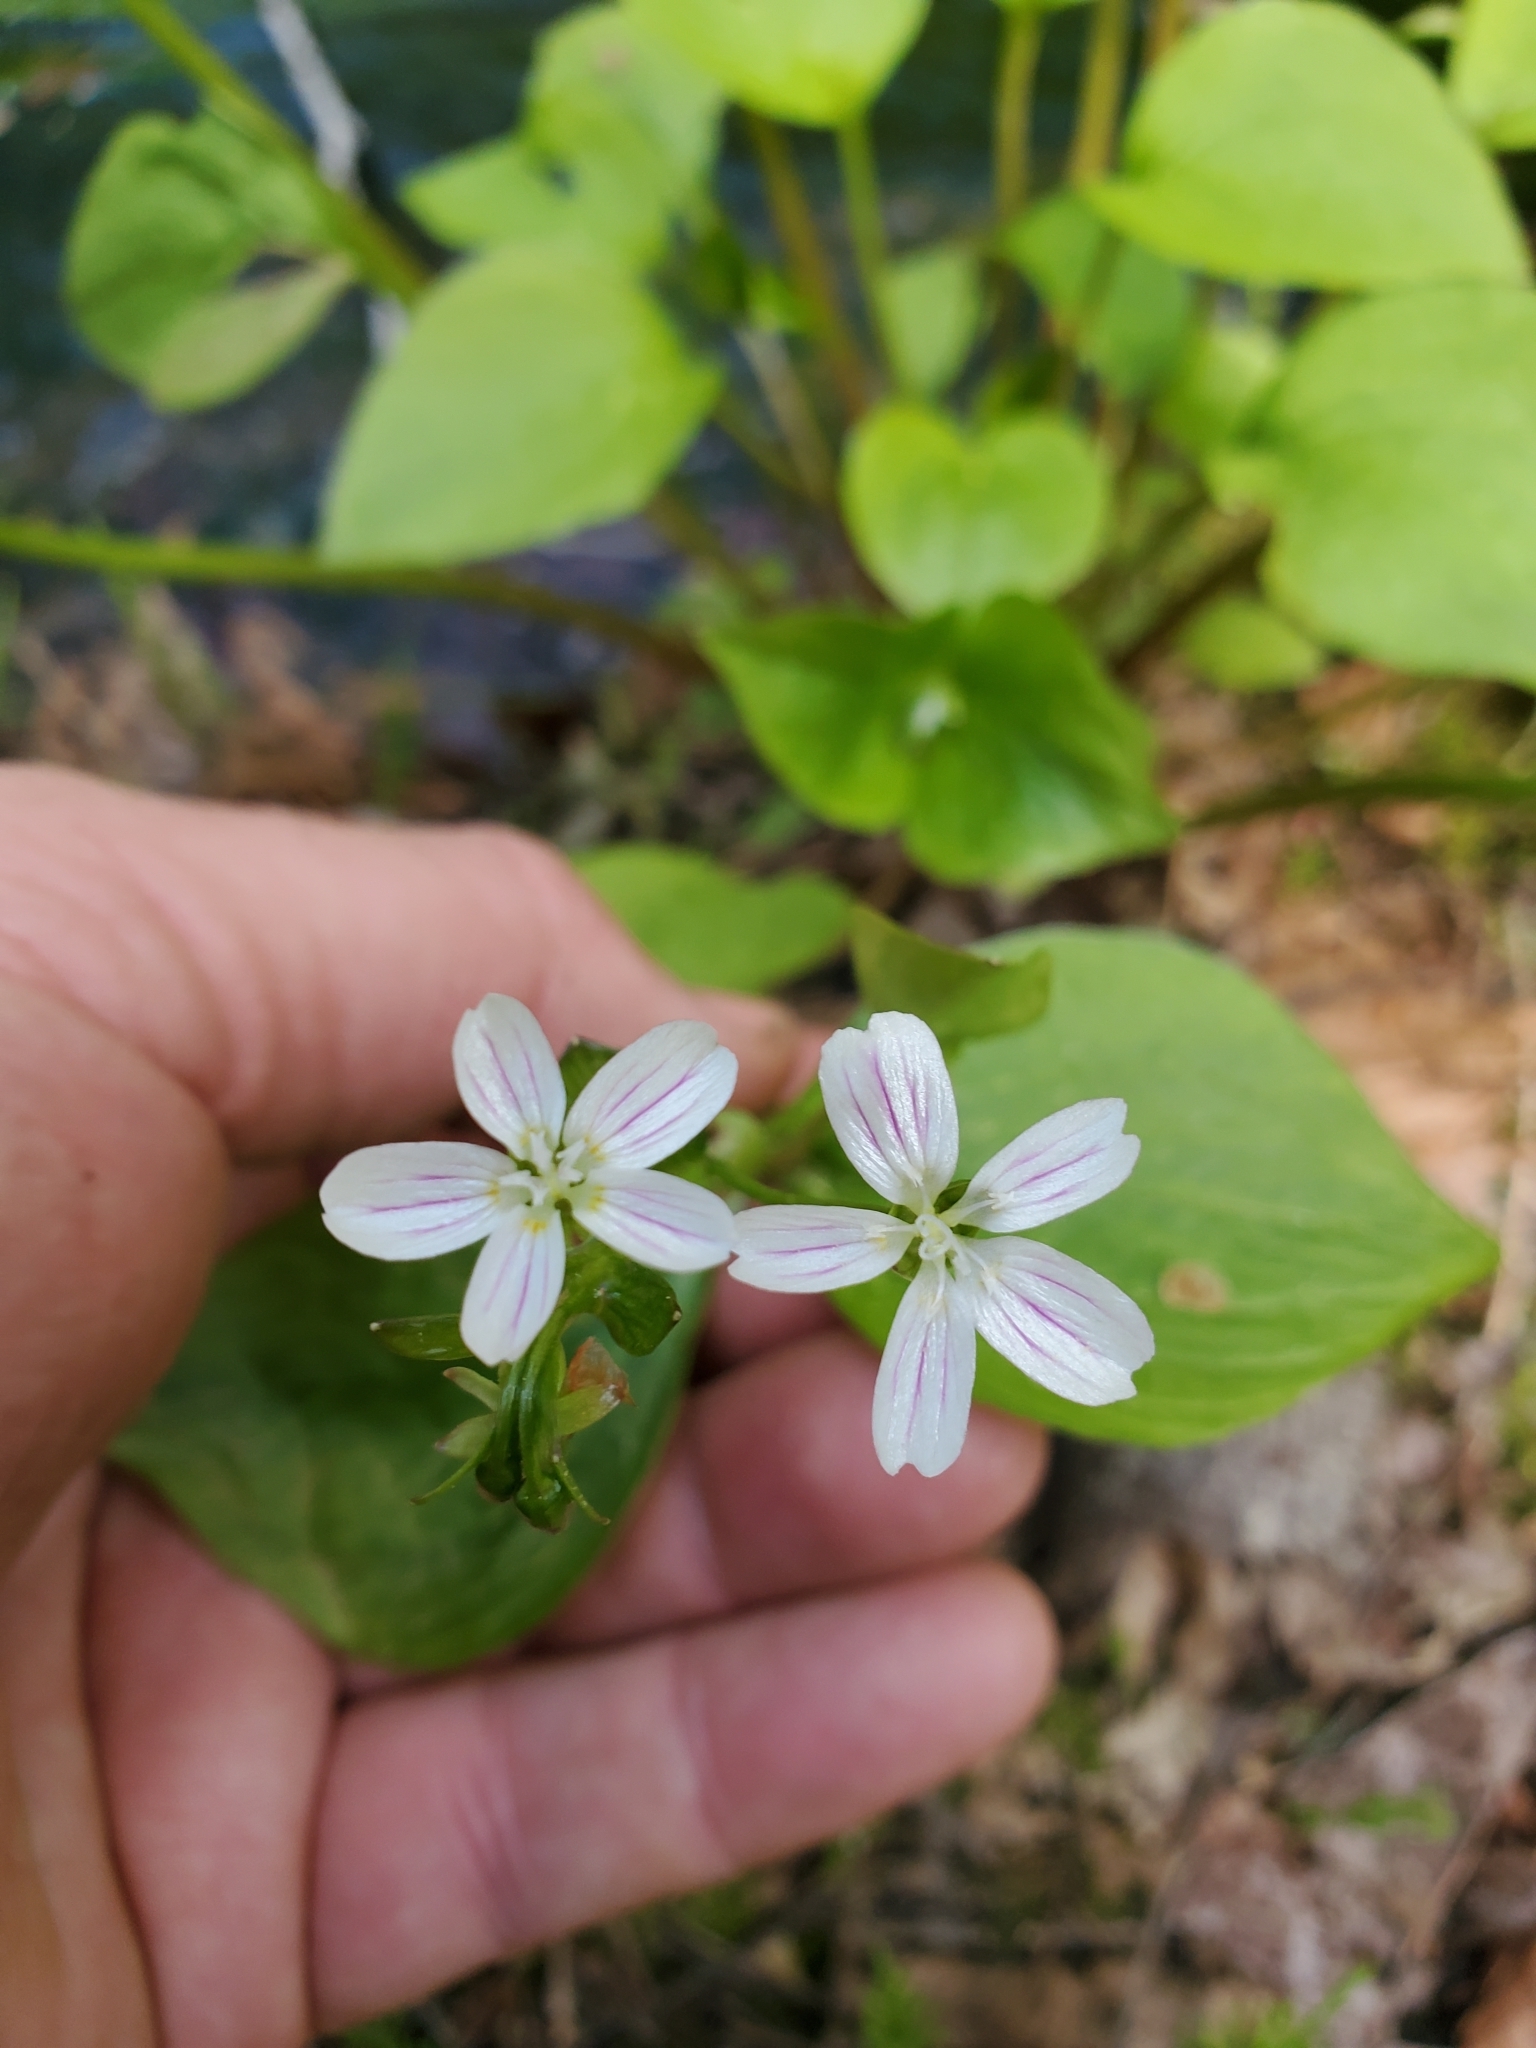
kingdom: Plantae
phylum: Tracheophyta
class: Magnoliopsida
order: Caryophyllales
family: Montiaceae
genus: Claytonia
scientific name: Claytonia sibirica
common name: Pink purslane
